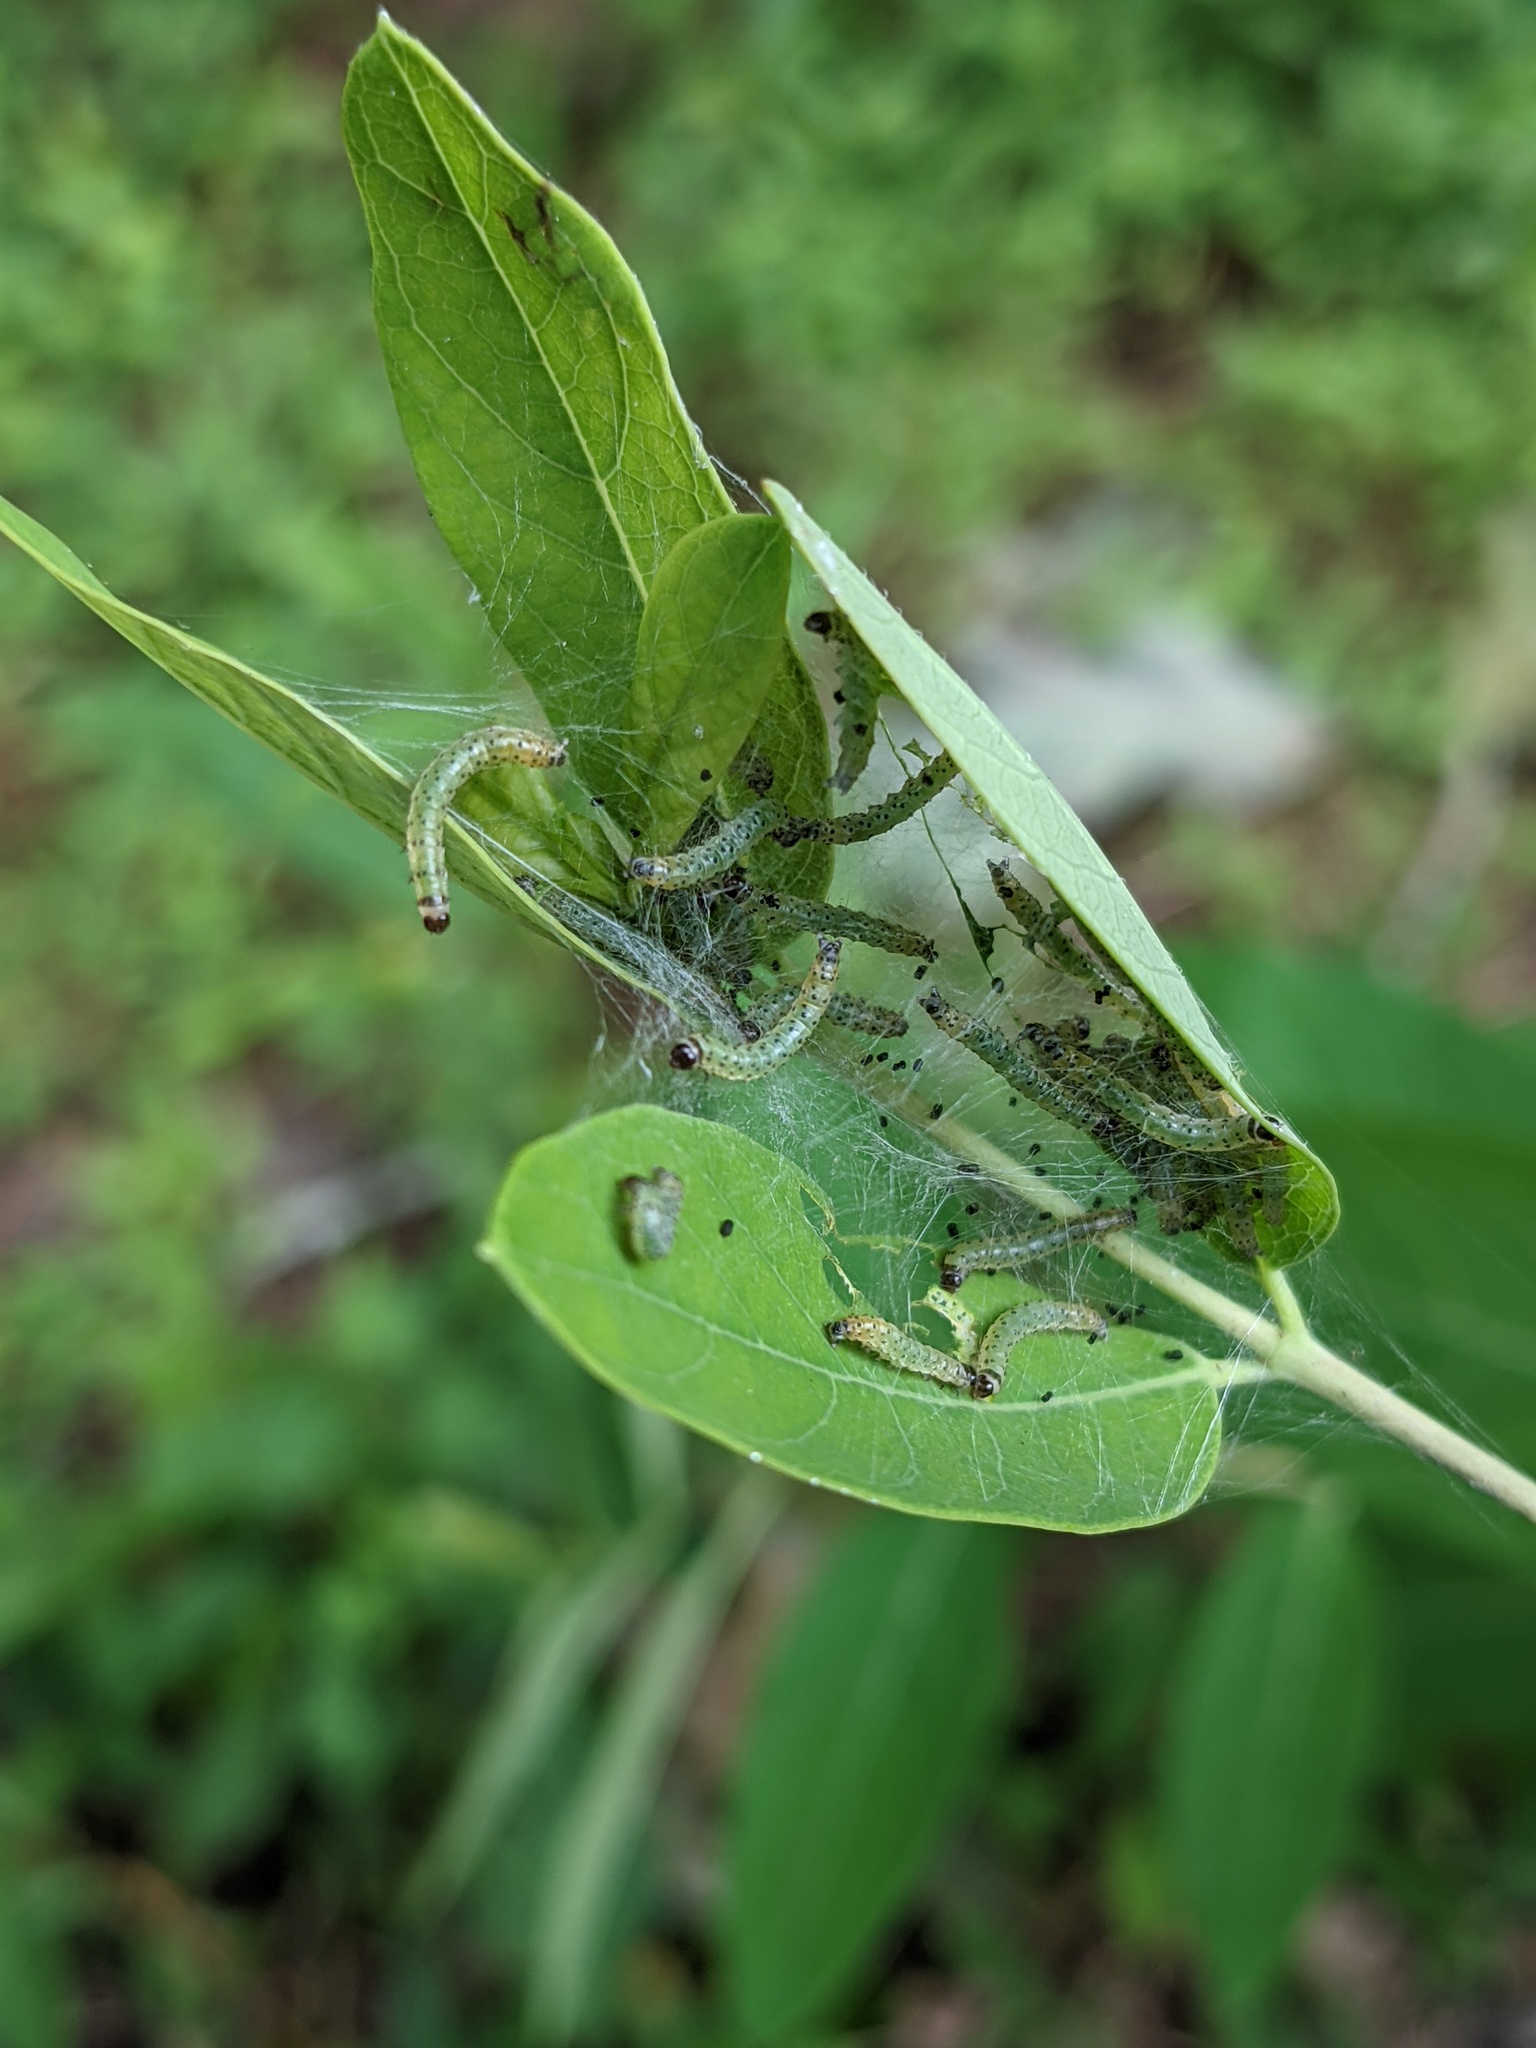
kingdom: Animalia
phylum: Arthropoda
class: Insecta
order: Lepidoptera
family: Crambidae
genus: Saucrobotys
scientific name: Saucrobotys futilalis
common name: Dogbane saucrobotys moth
